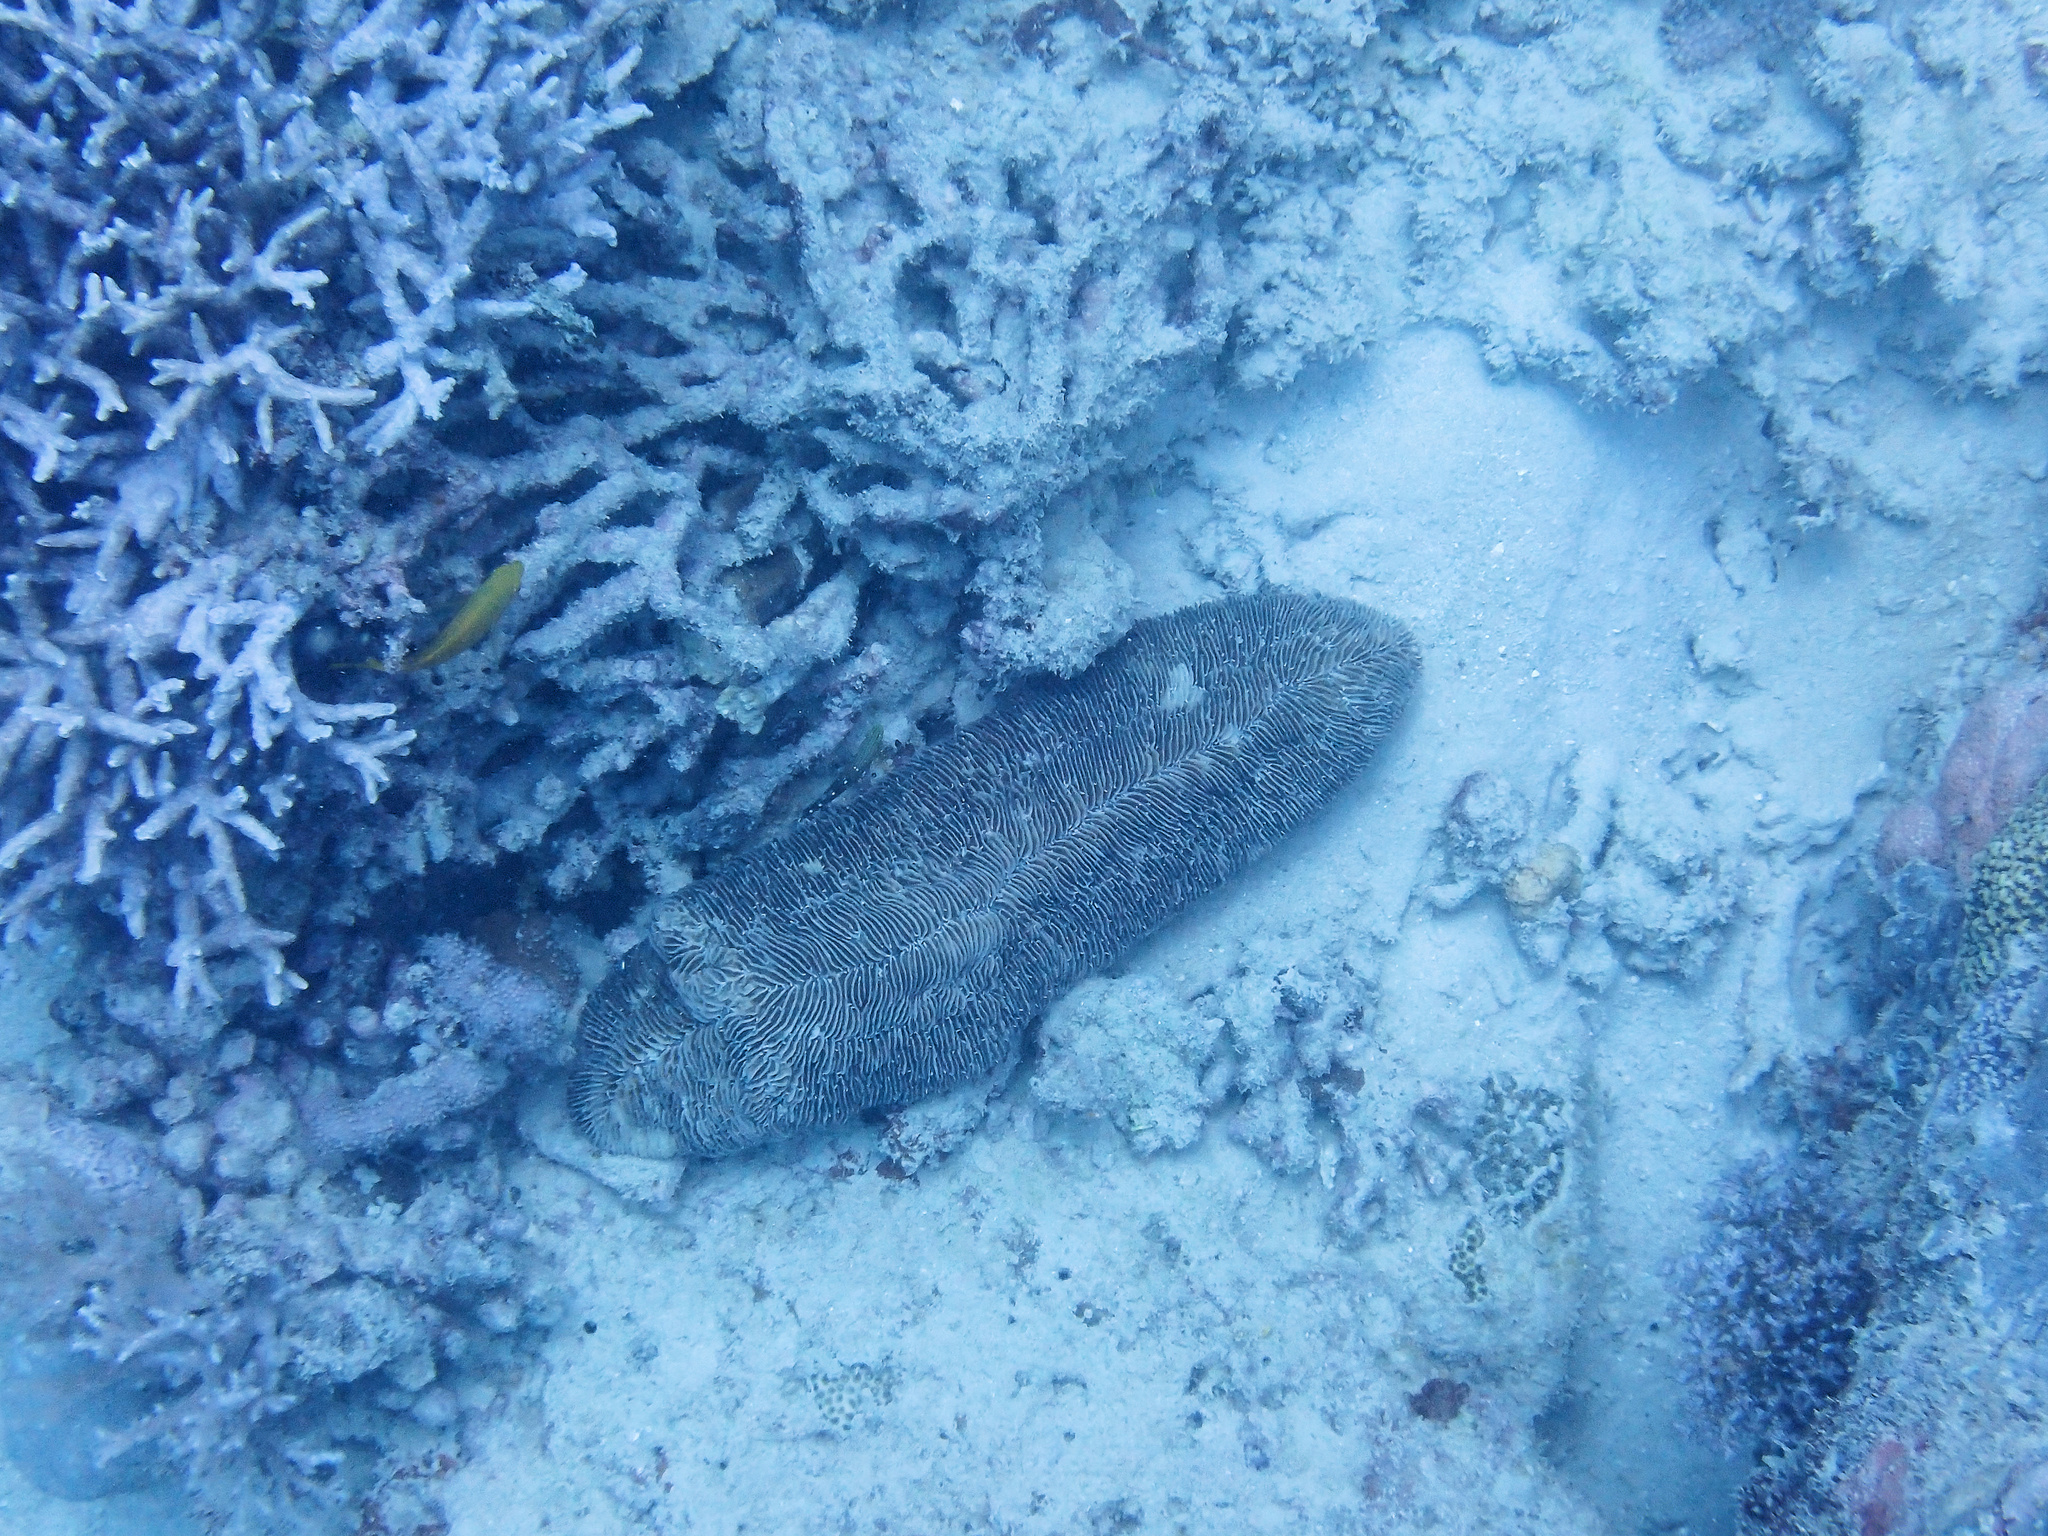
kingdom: Animalia
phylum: Cnidaria
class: Anthozoa
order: Scleractinia
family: Fungiidae
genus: Herpolitha
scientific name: Herpolitha limax
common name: Striate boomerang coral
